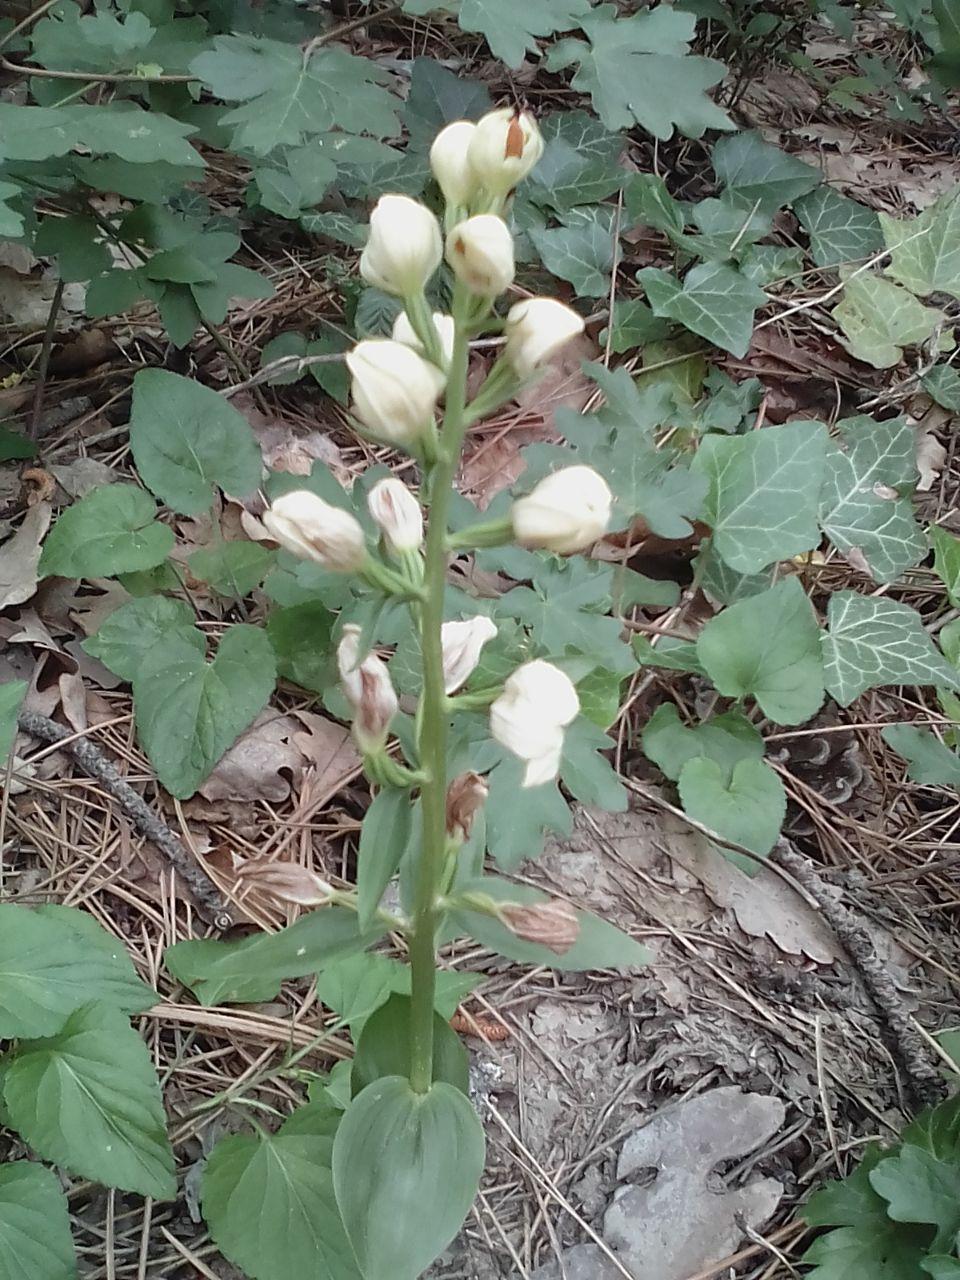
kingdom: Plantae
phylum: Tracheophyta
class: Liliopsida
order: Asparagales
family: Orchidaceae
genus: Cephalanthera
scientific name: Cephalanthera damasonium
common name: White helleborine
